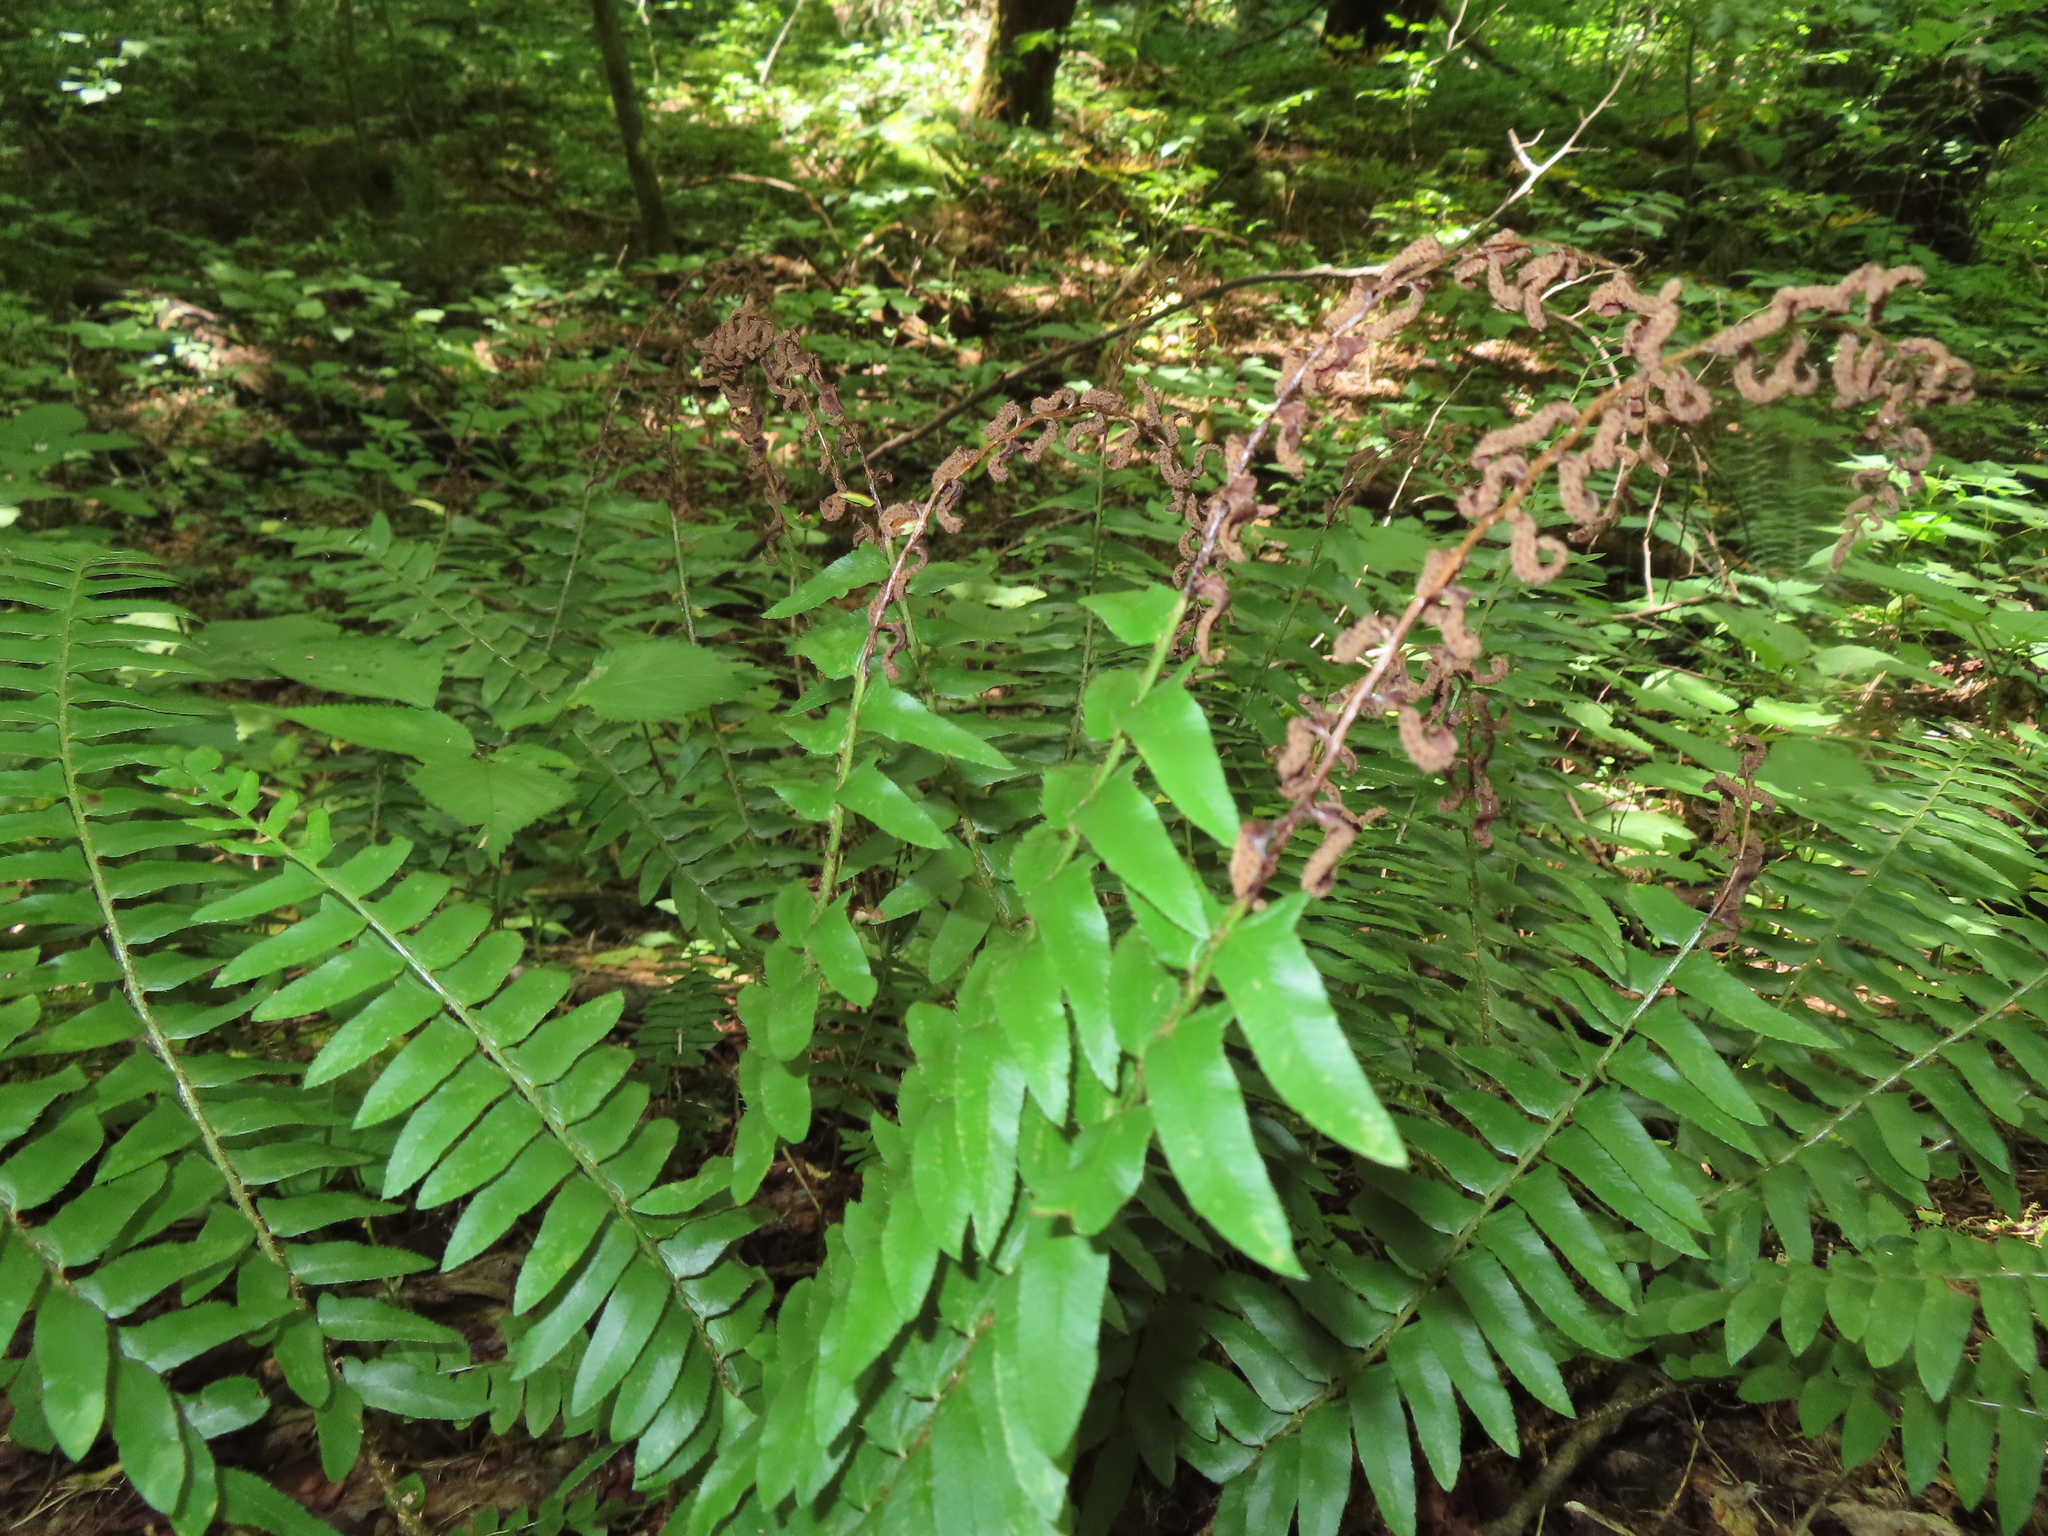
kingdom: Plantae
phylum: Tracheophyta
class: Polypodiopsida
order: Polypodiales
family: Dryopteridaceae
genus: Polystichum
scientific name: Polystichum acrostichoides
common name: Christmas fern
